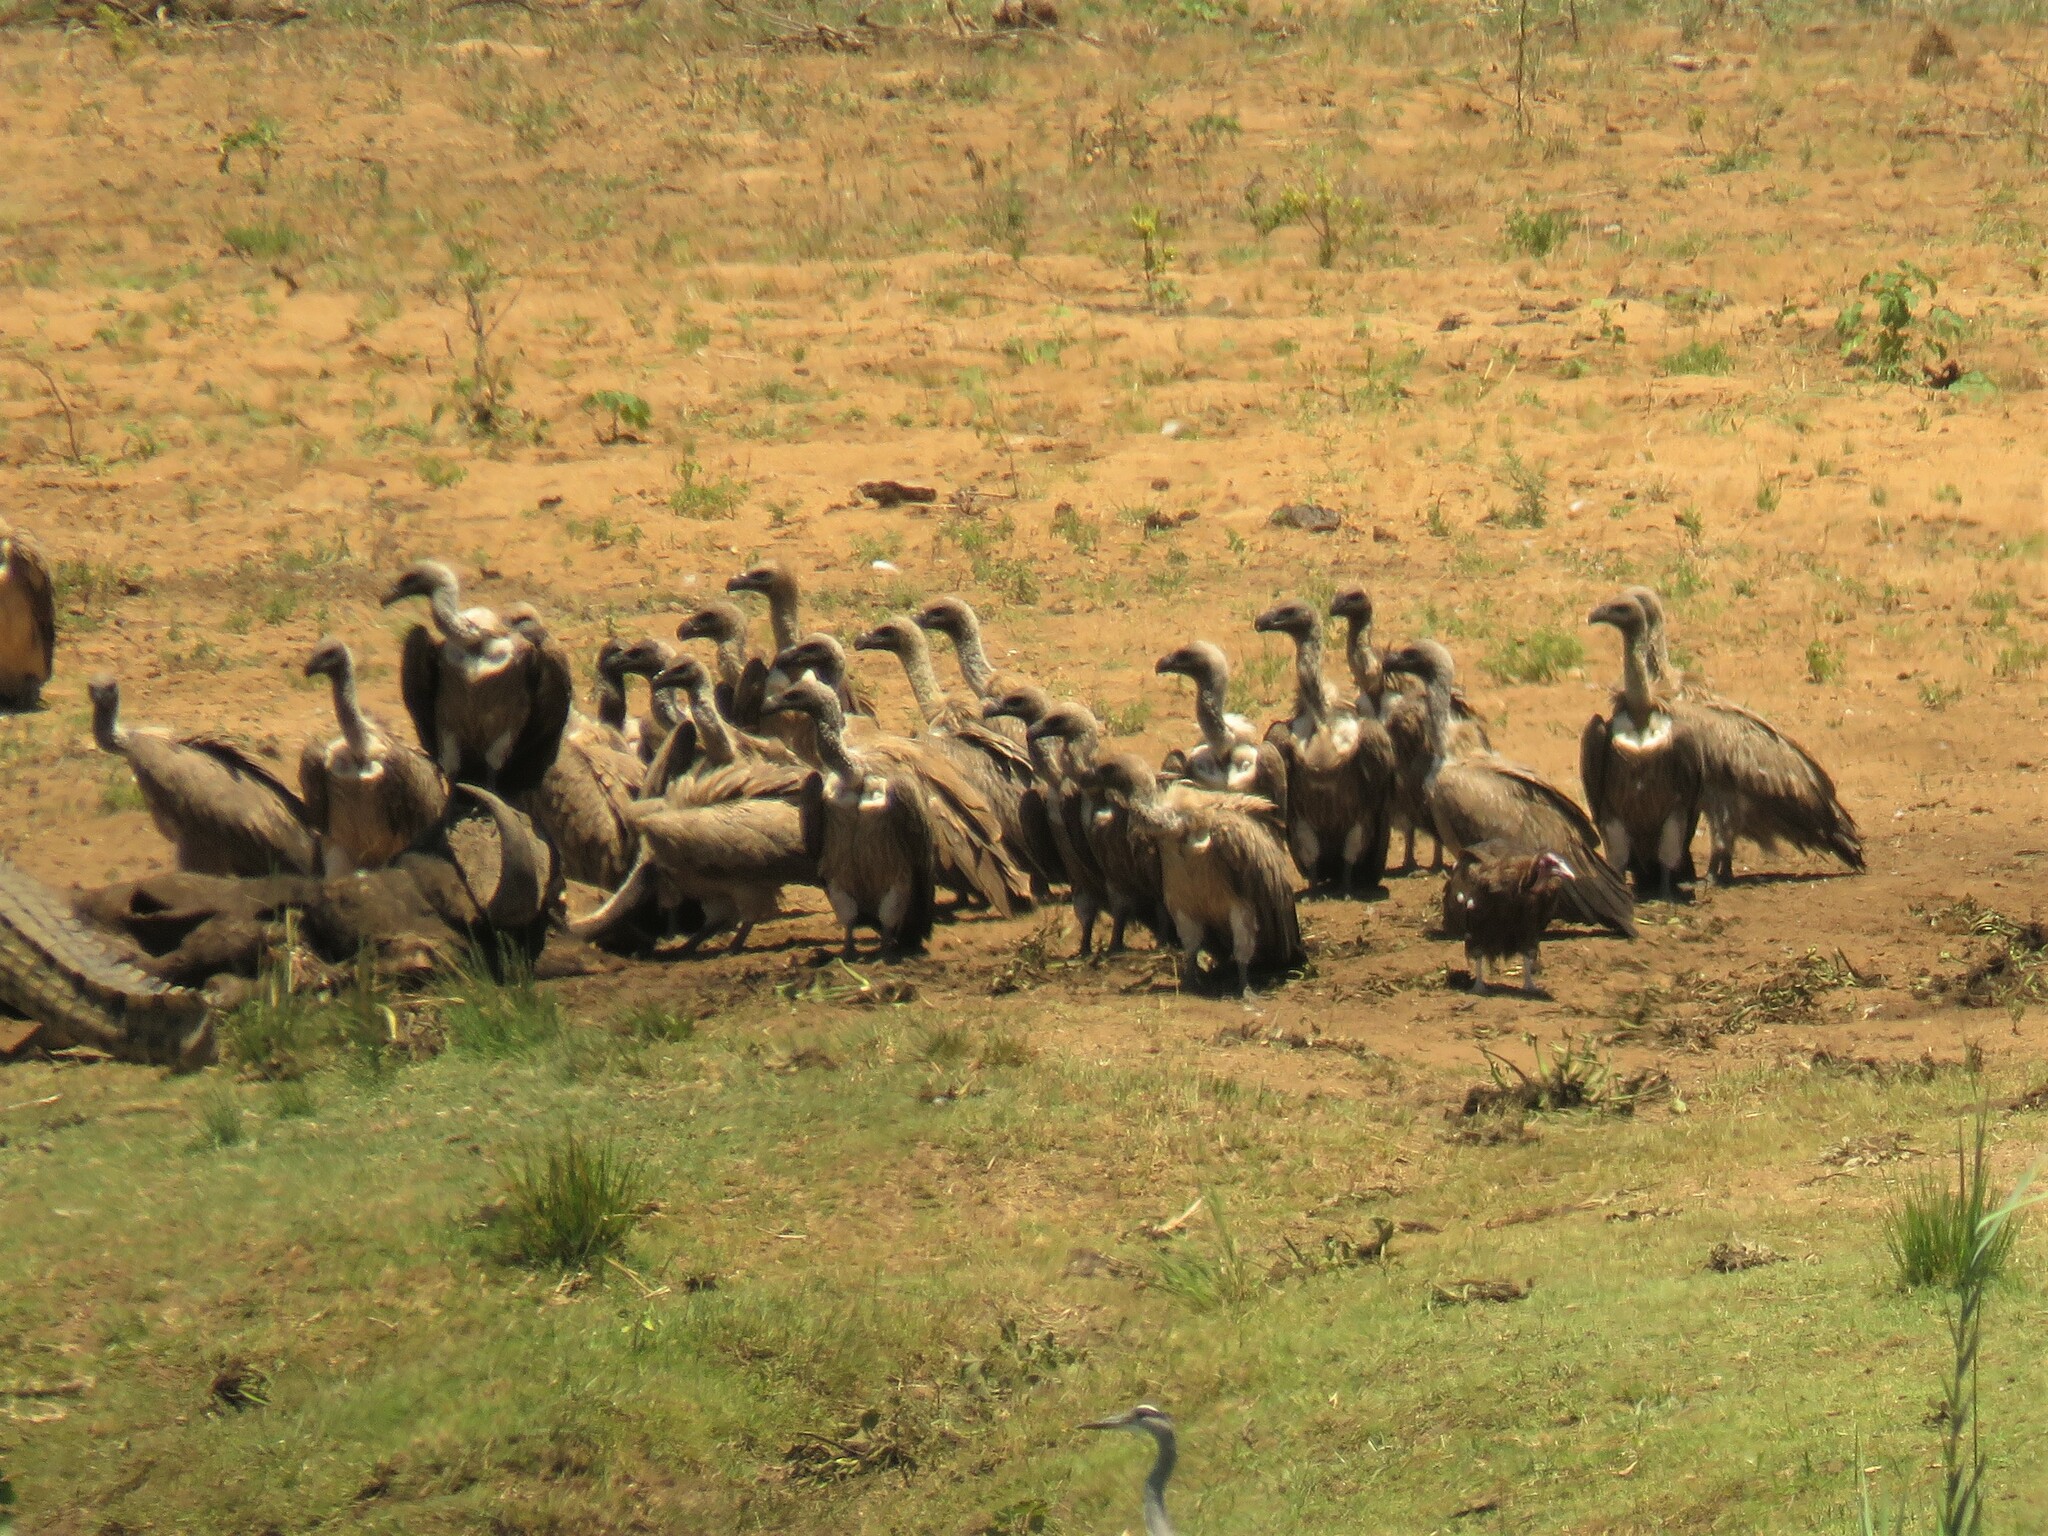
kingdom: Animalia
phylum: Chordata
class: Aves
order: Accipitriformes
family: Accipitridae
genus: Gyps
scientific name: Gyps africanus
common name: White-backed vulture
